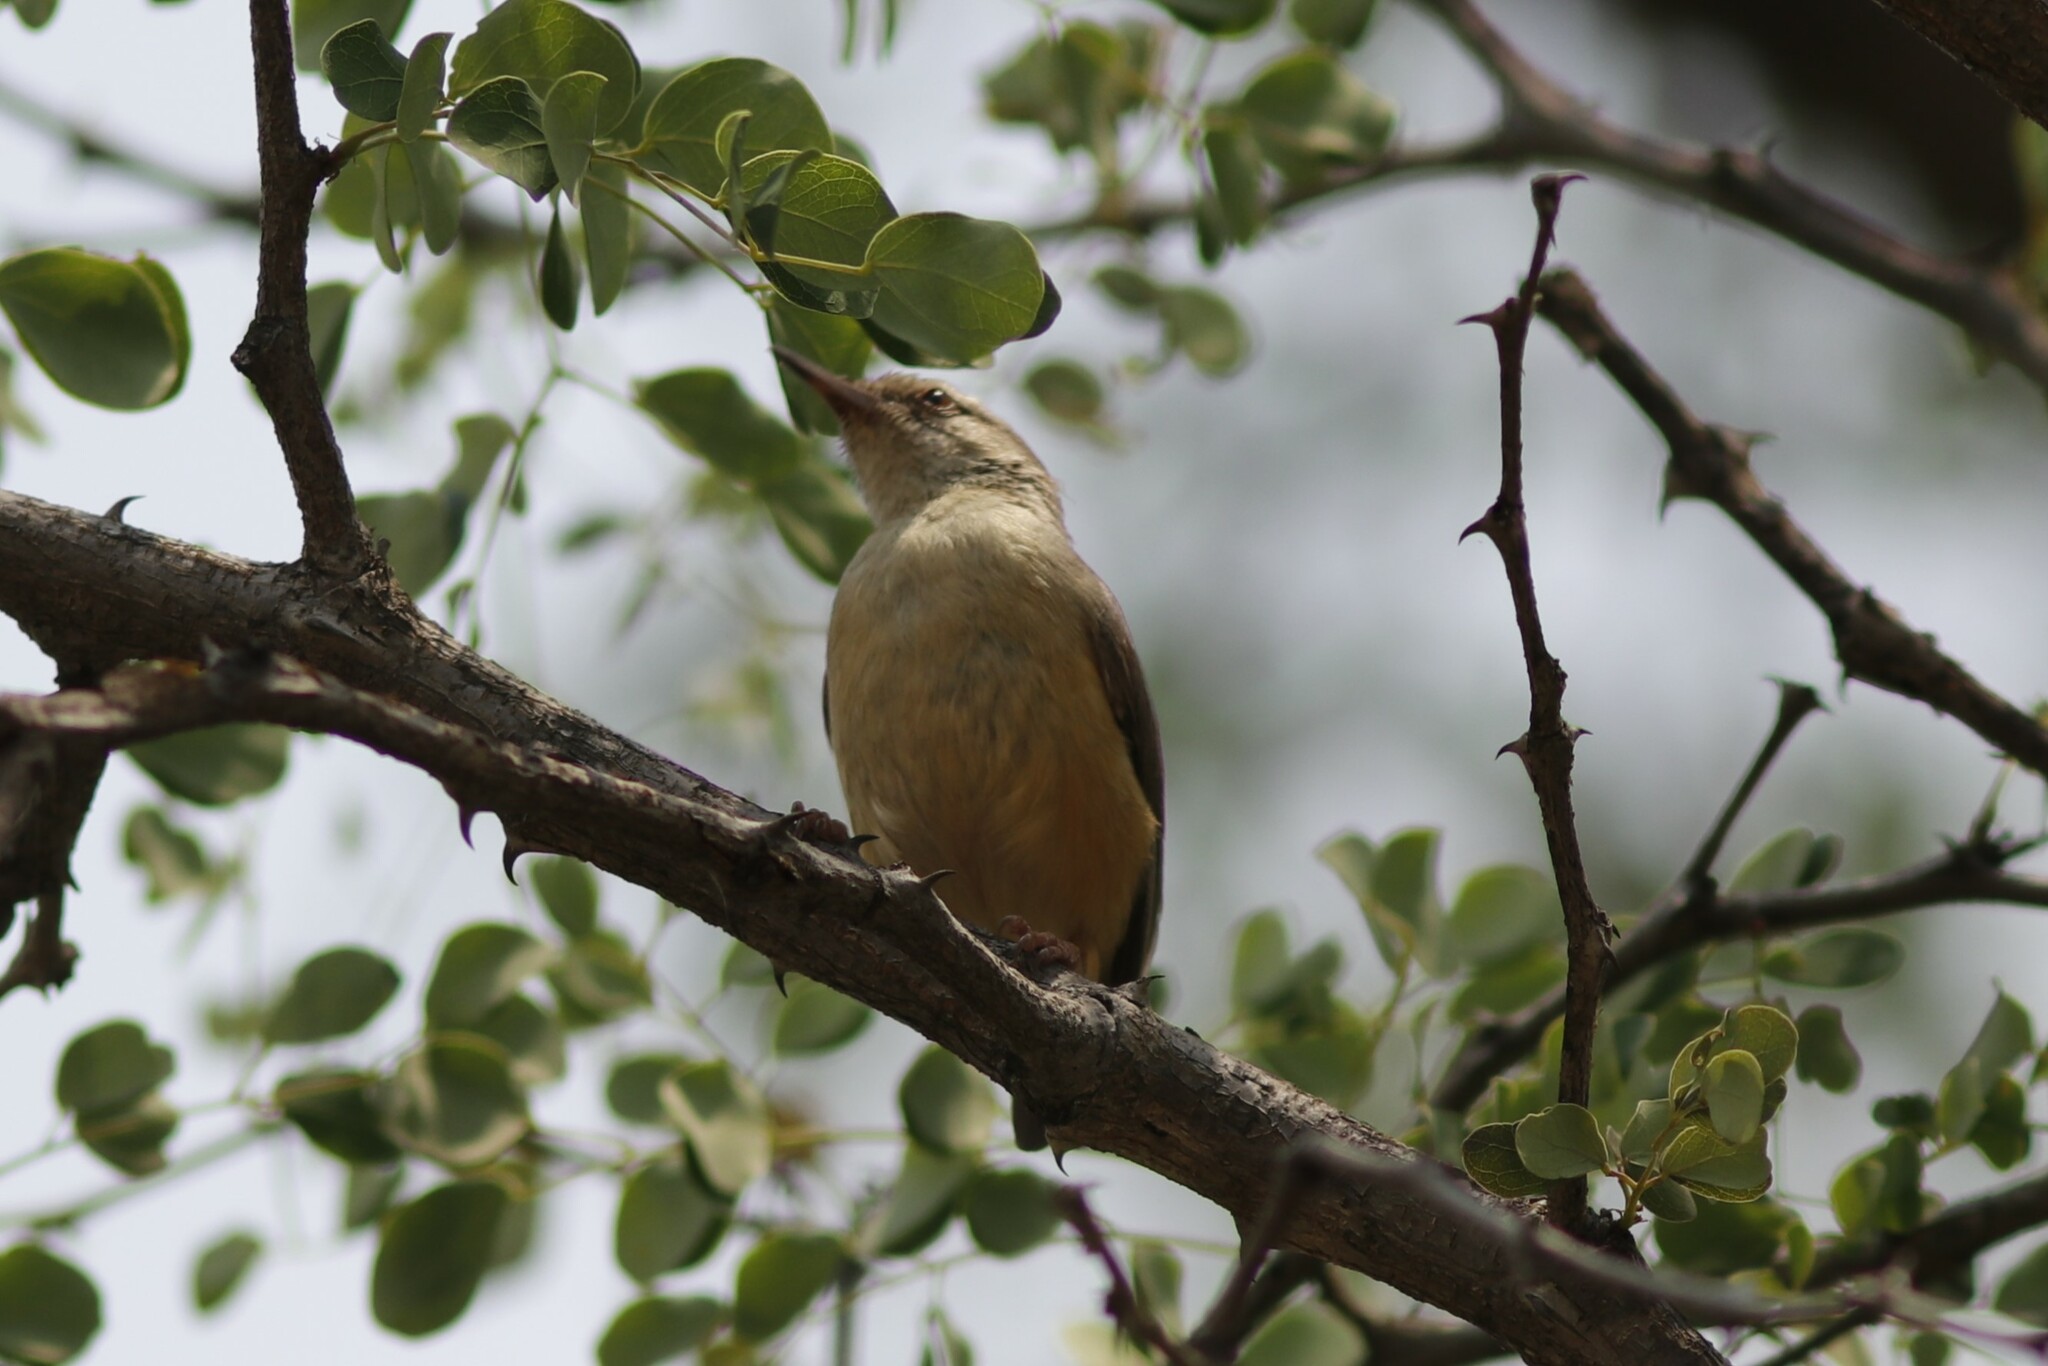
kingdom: Animalia
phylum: Chordata
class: Aves
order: Passeriformes
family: Macrosphenidae
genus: Sylvietta
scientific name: Sylvietta rufescens
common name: Long-billed crombec
